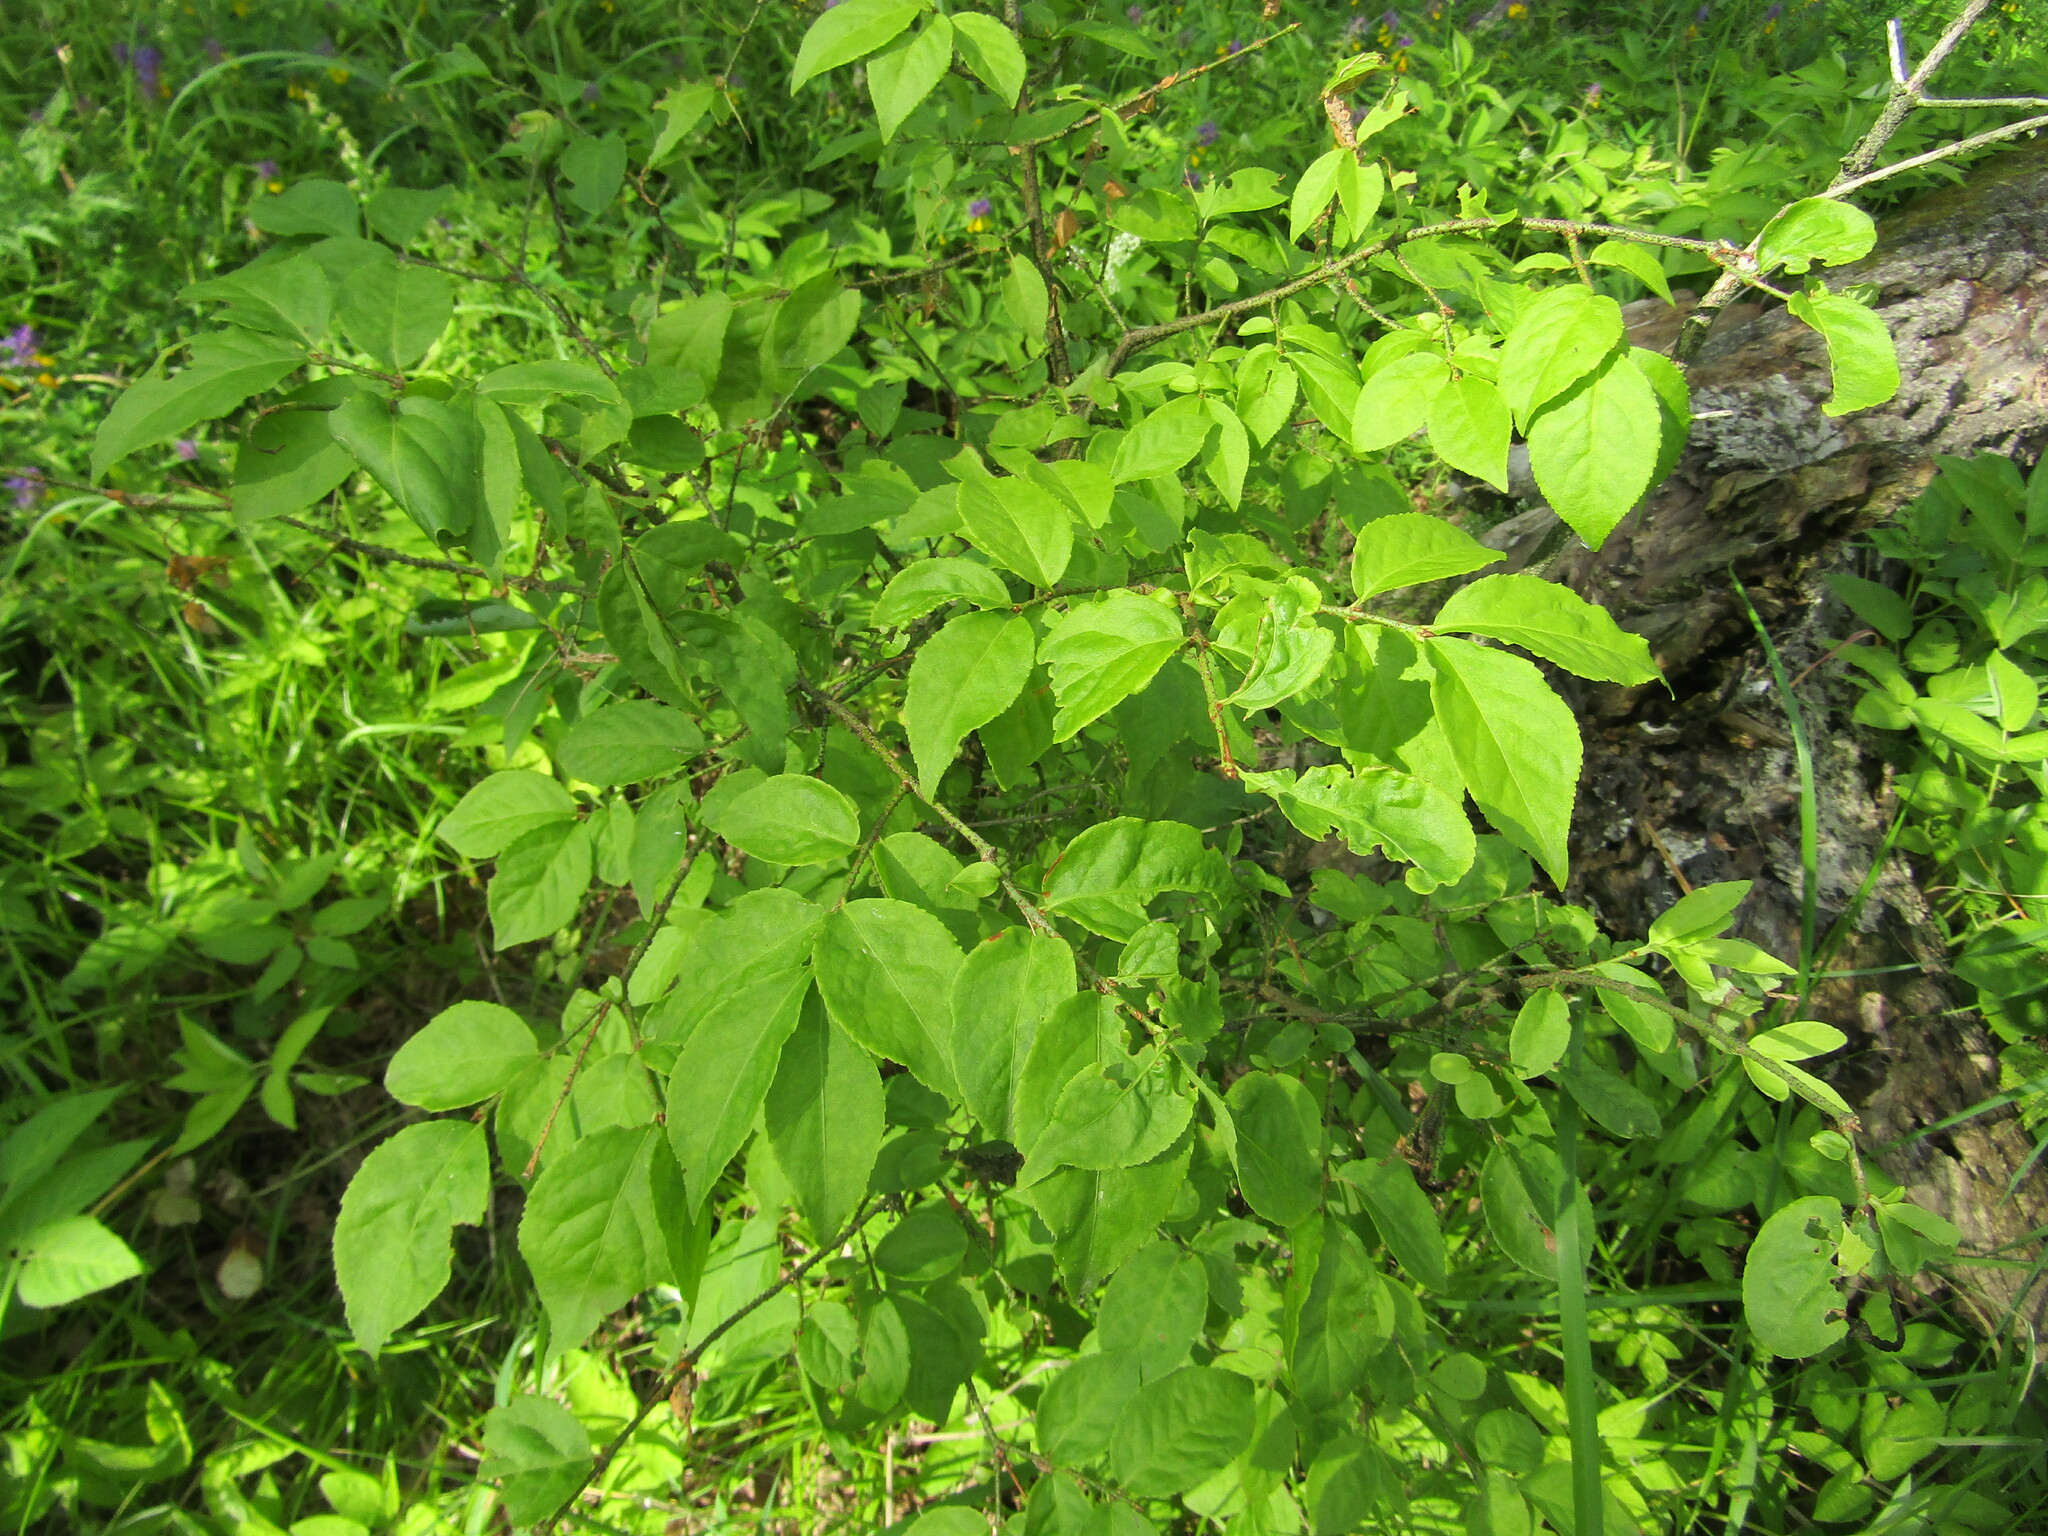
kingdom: Plantae
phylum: Tracheophyta
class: Magnoliopsida
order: Celastrales
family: Celastraceae
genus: Euonymus
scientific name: Euonymus verrucosus
